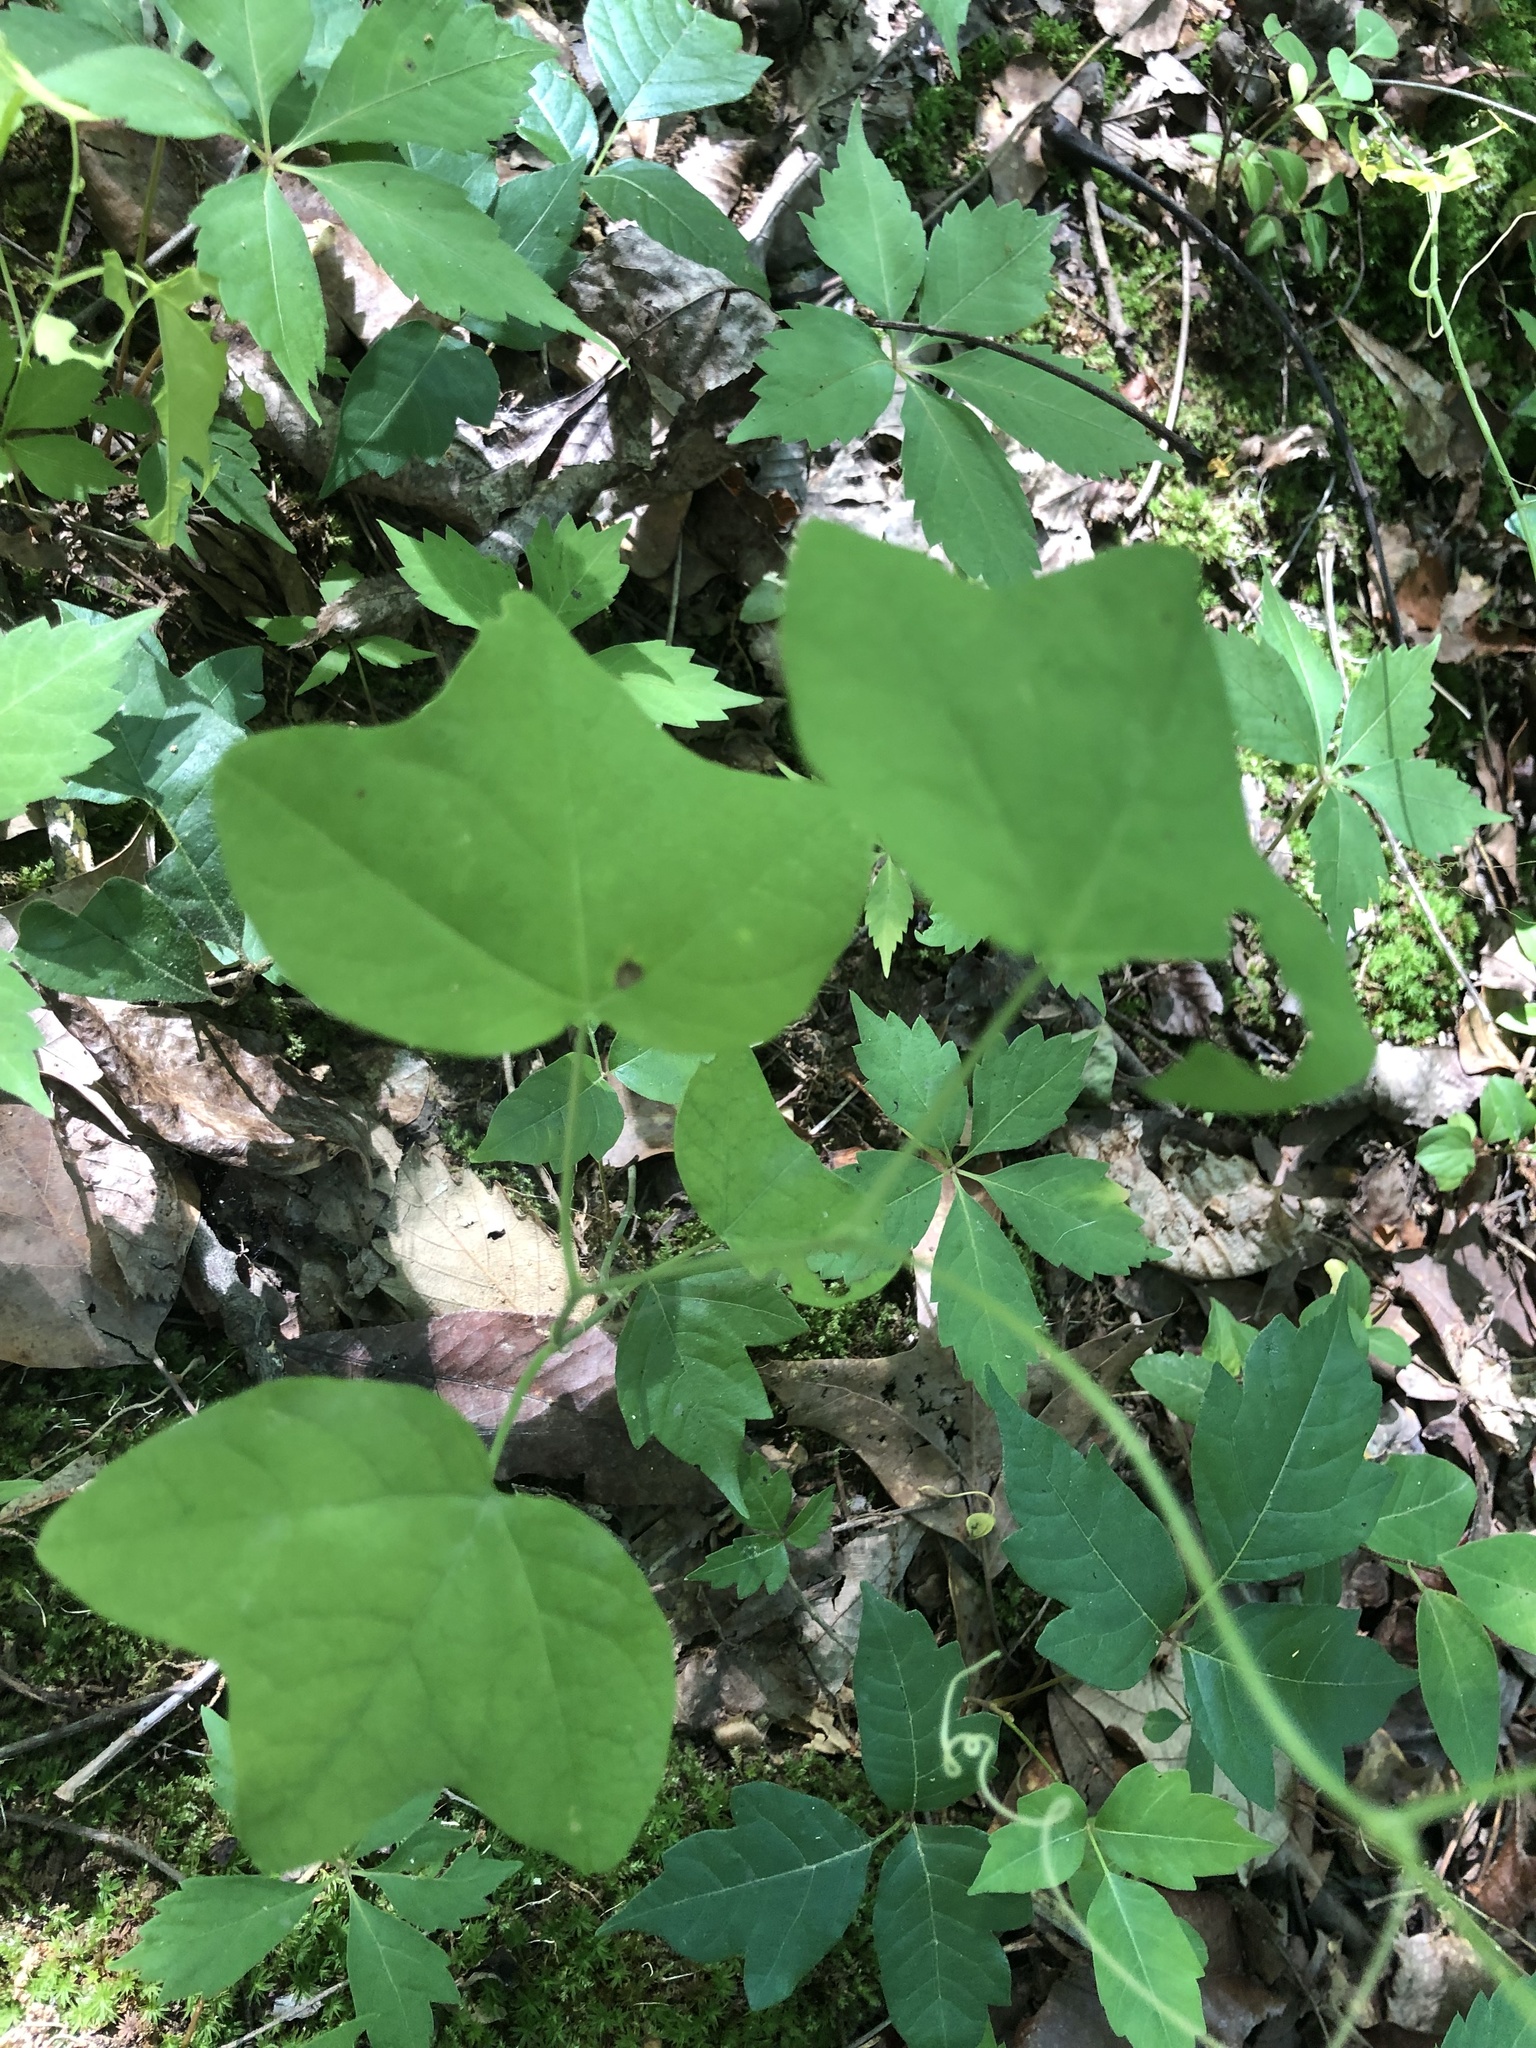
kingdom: Plantae
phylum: Tracheophyta
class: Magnoliopsida
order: Malpighiales
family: Passifloraceae
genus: Passiflora
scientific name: Passiflora lutea
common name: Yellow passionflower
